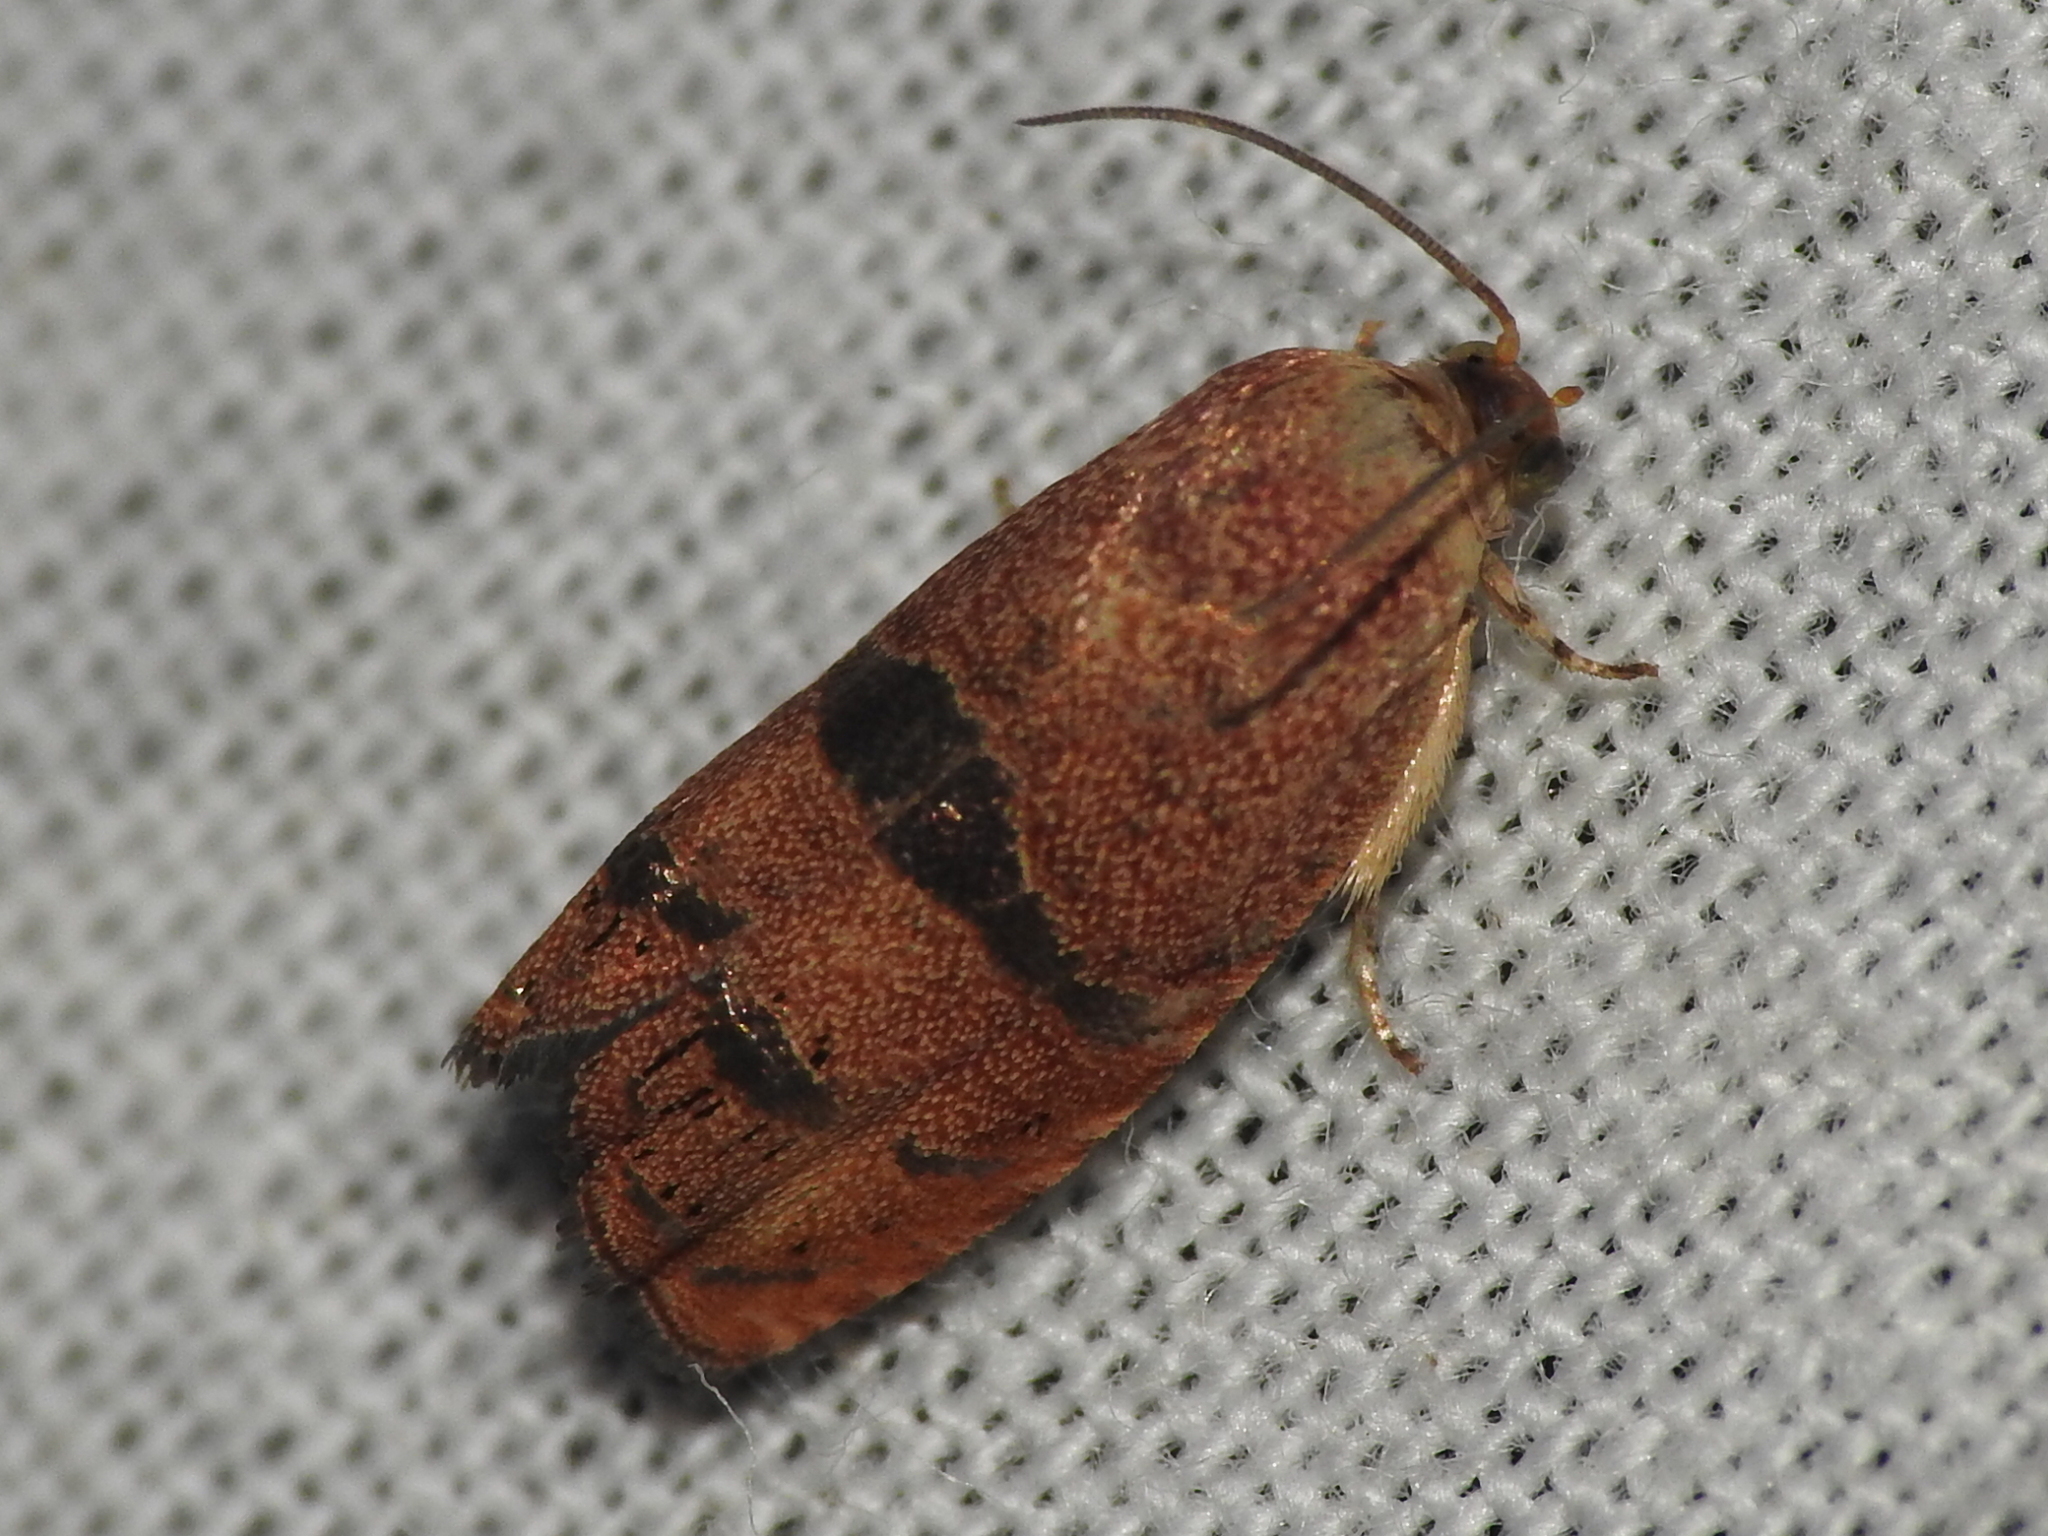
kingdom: Animalia
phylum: Arthropoda
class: Insecta
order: Lepidoptera
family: Tortricidae
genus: Cydia
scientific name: Cydia latiferreana
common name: Filbertworm moth
